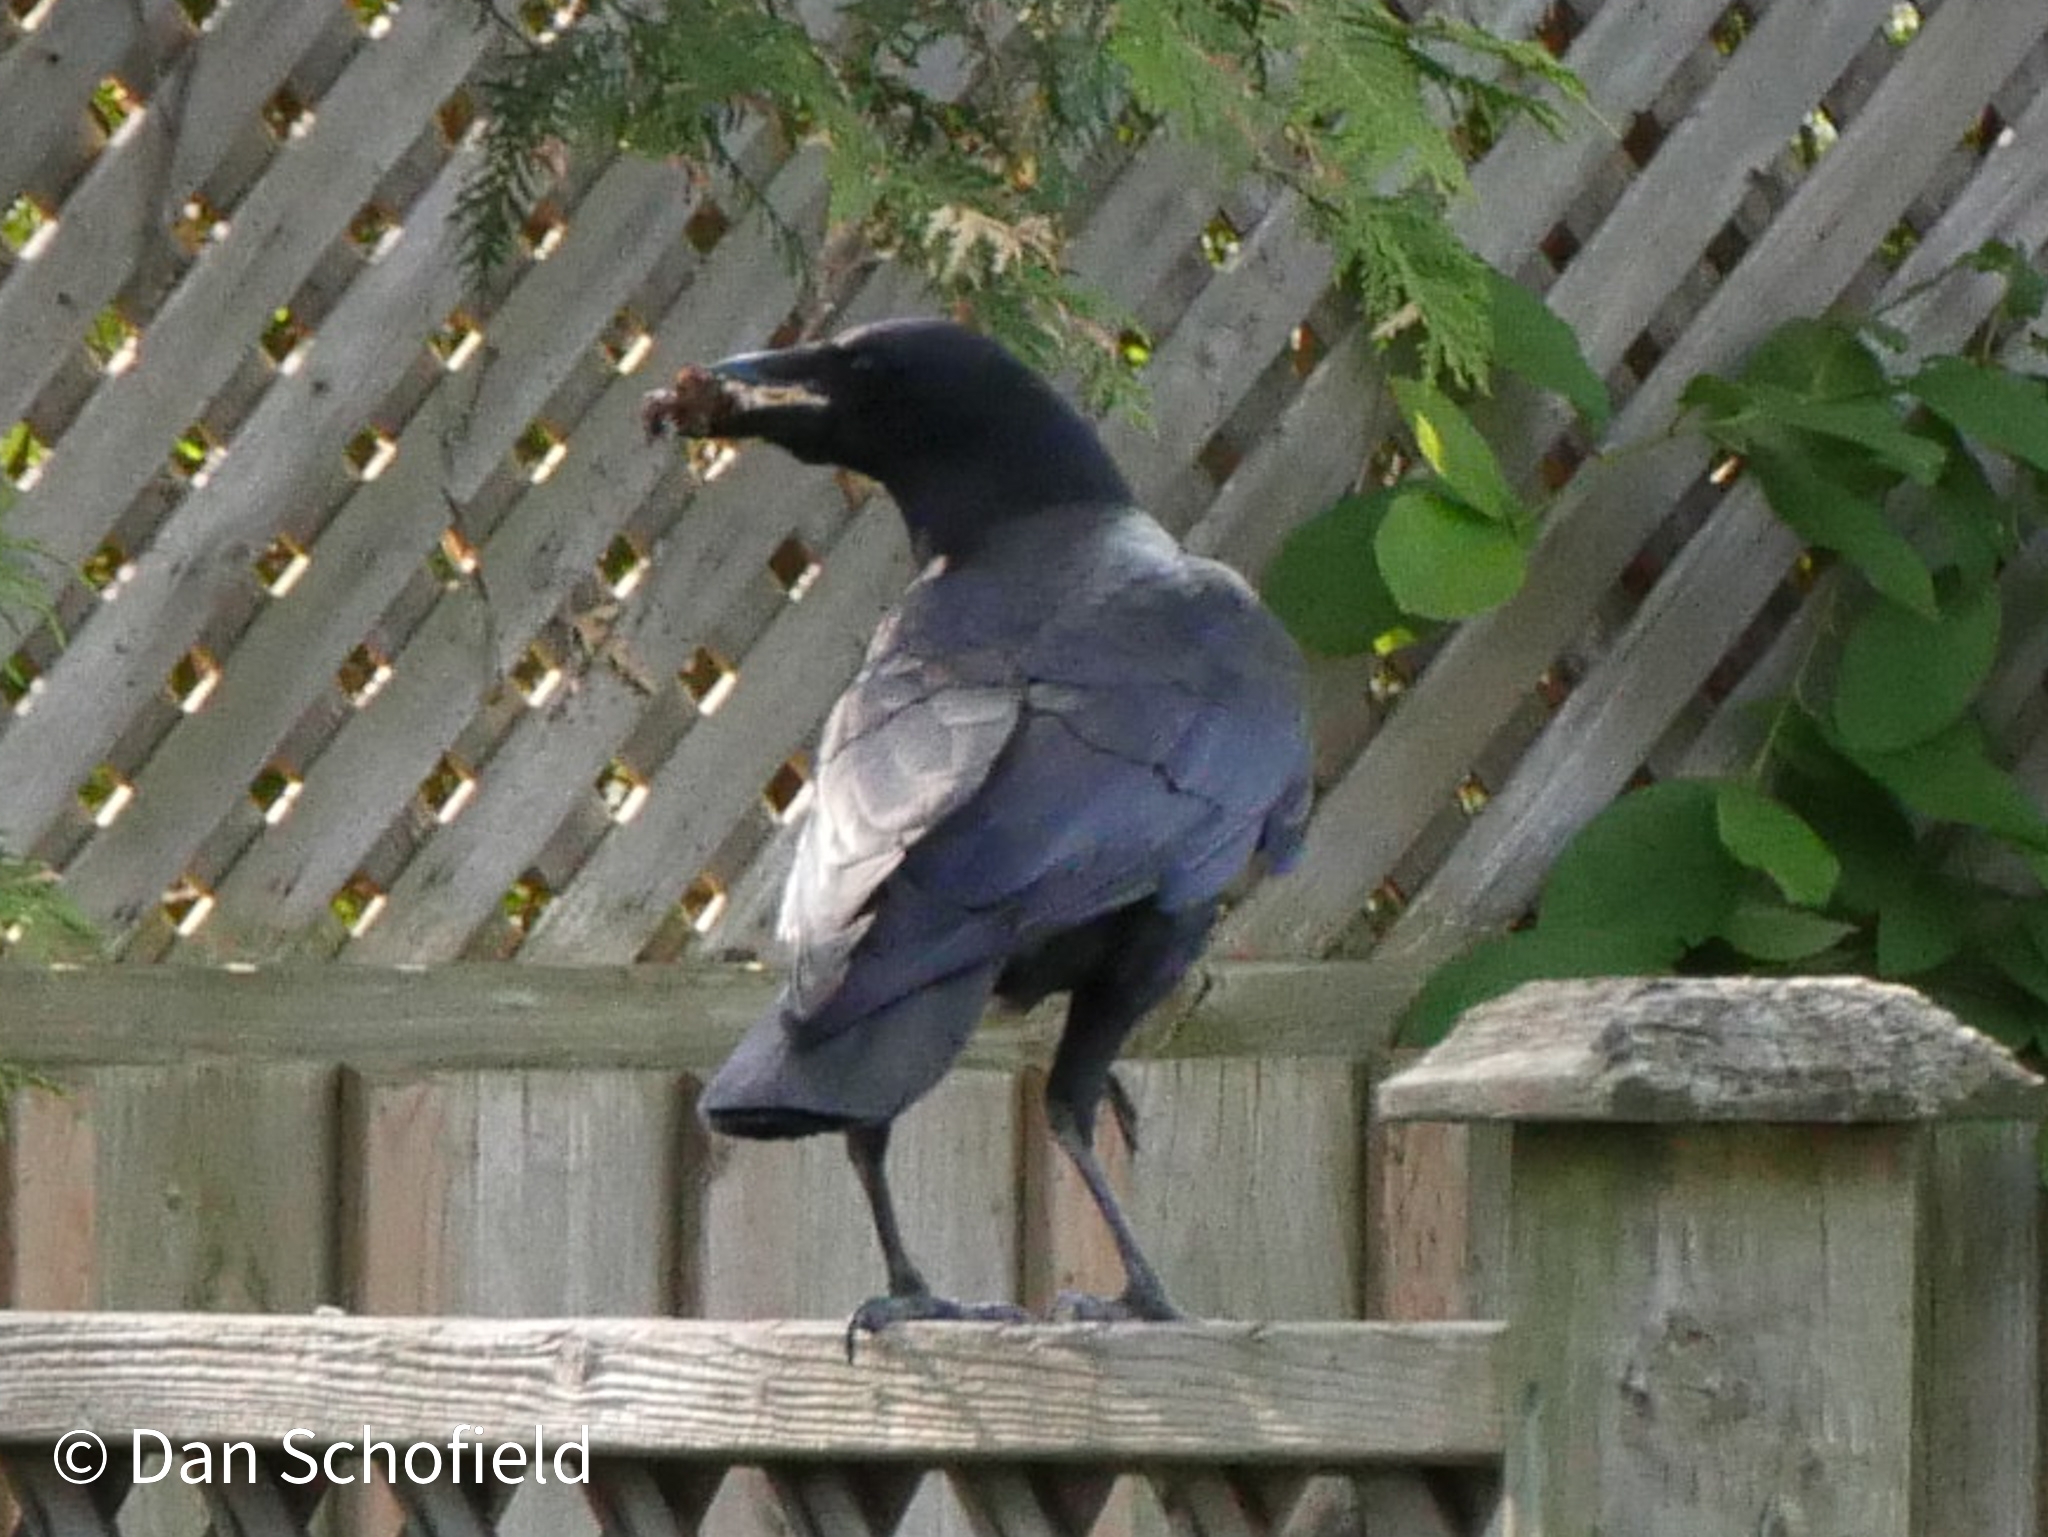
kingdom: Animalia
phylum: Chordata
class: Aves
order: Passeriformes
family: Corvidae
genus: Corvus
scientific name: Corvus brachyrhynchos
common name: American crow
